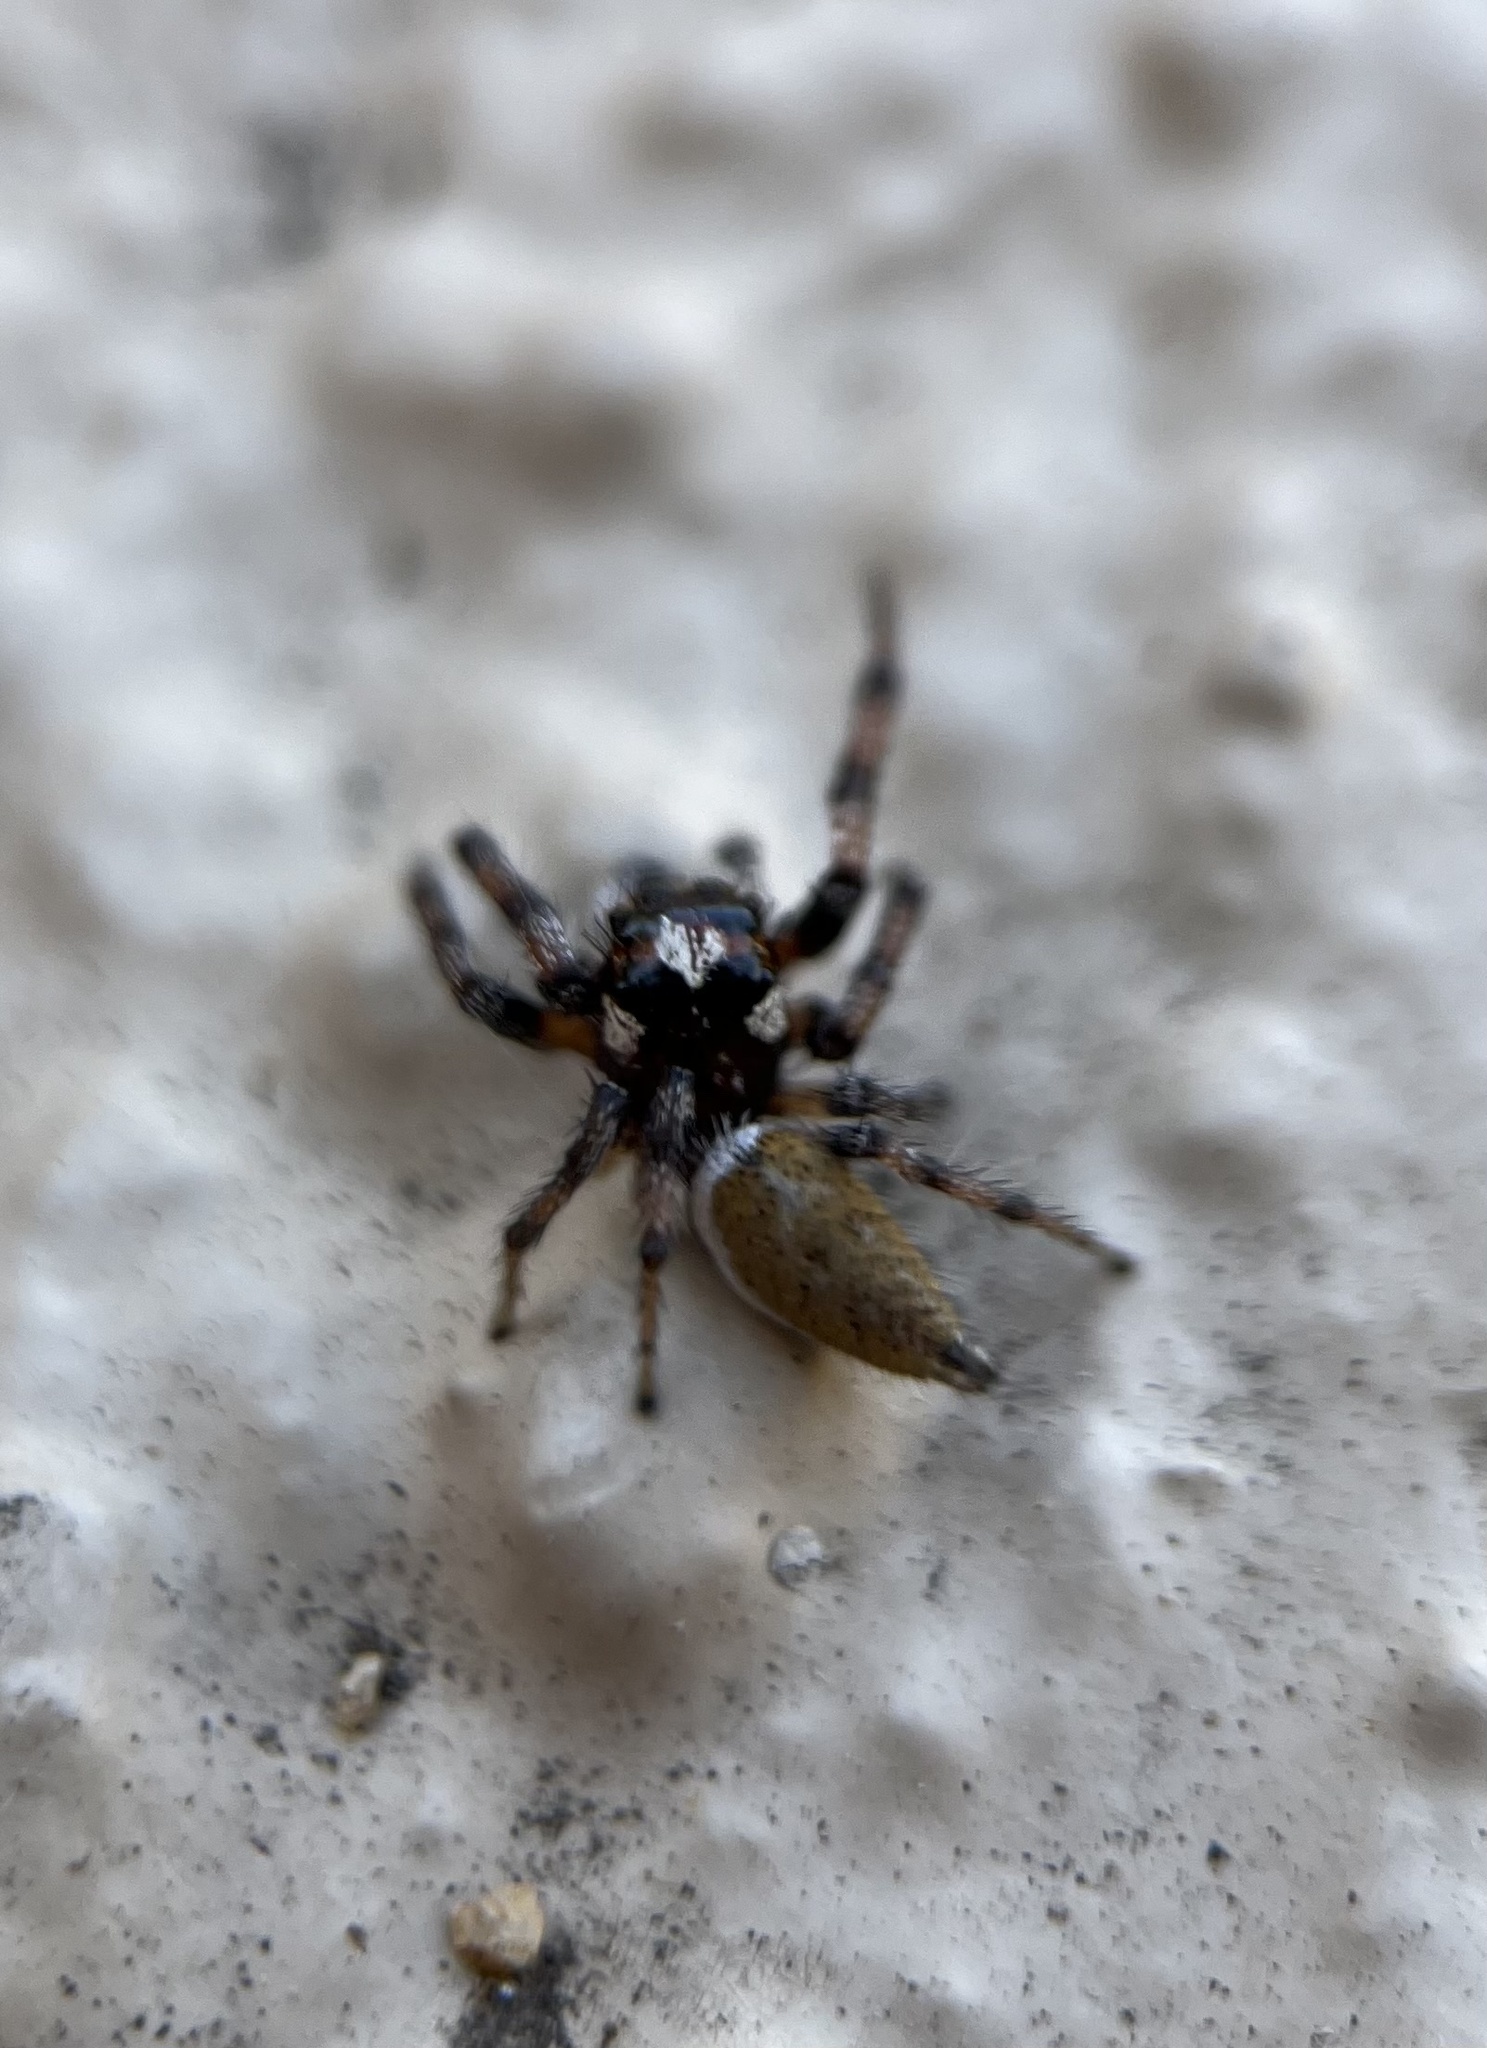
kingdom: Animalia
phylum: Arthropoda
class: Arachnida
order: Araneae
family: Salticidae
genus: Colonus
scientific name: Colonus hesperus
